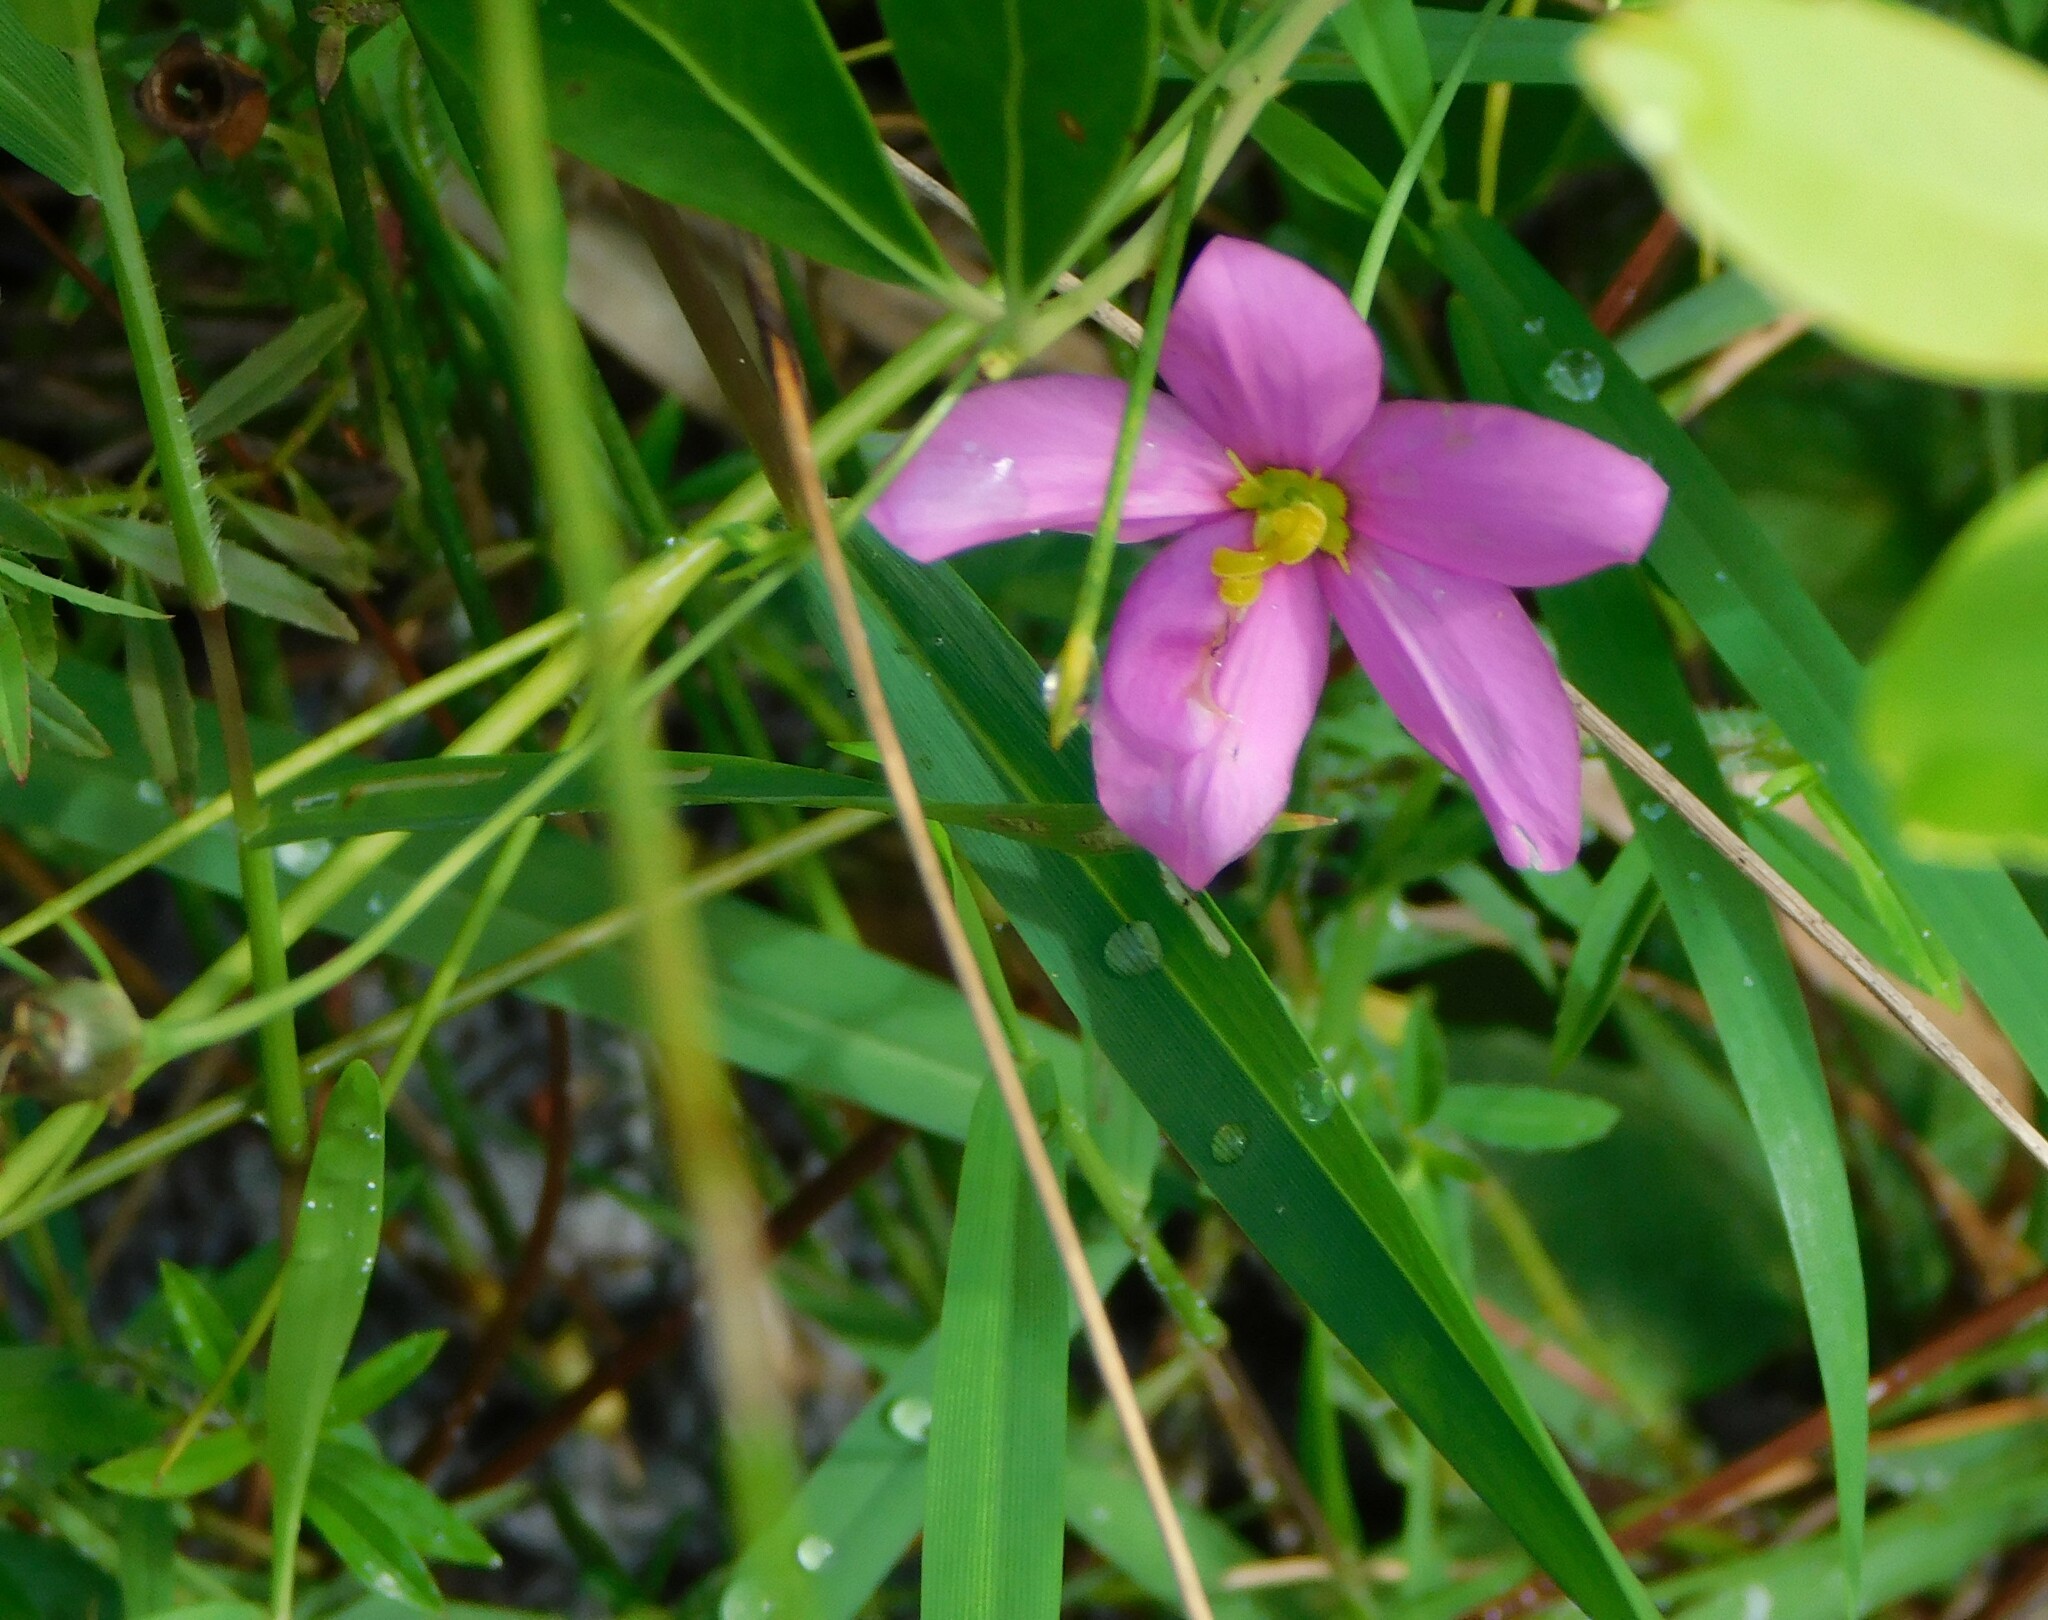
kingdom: Plantae
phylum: Tracheophyta
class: Magnoliopsida
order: Gentianales
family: Gentianaceae
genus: Sabatia
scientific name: Sabatia grandiflora
